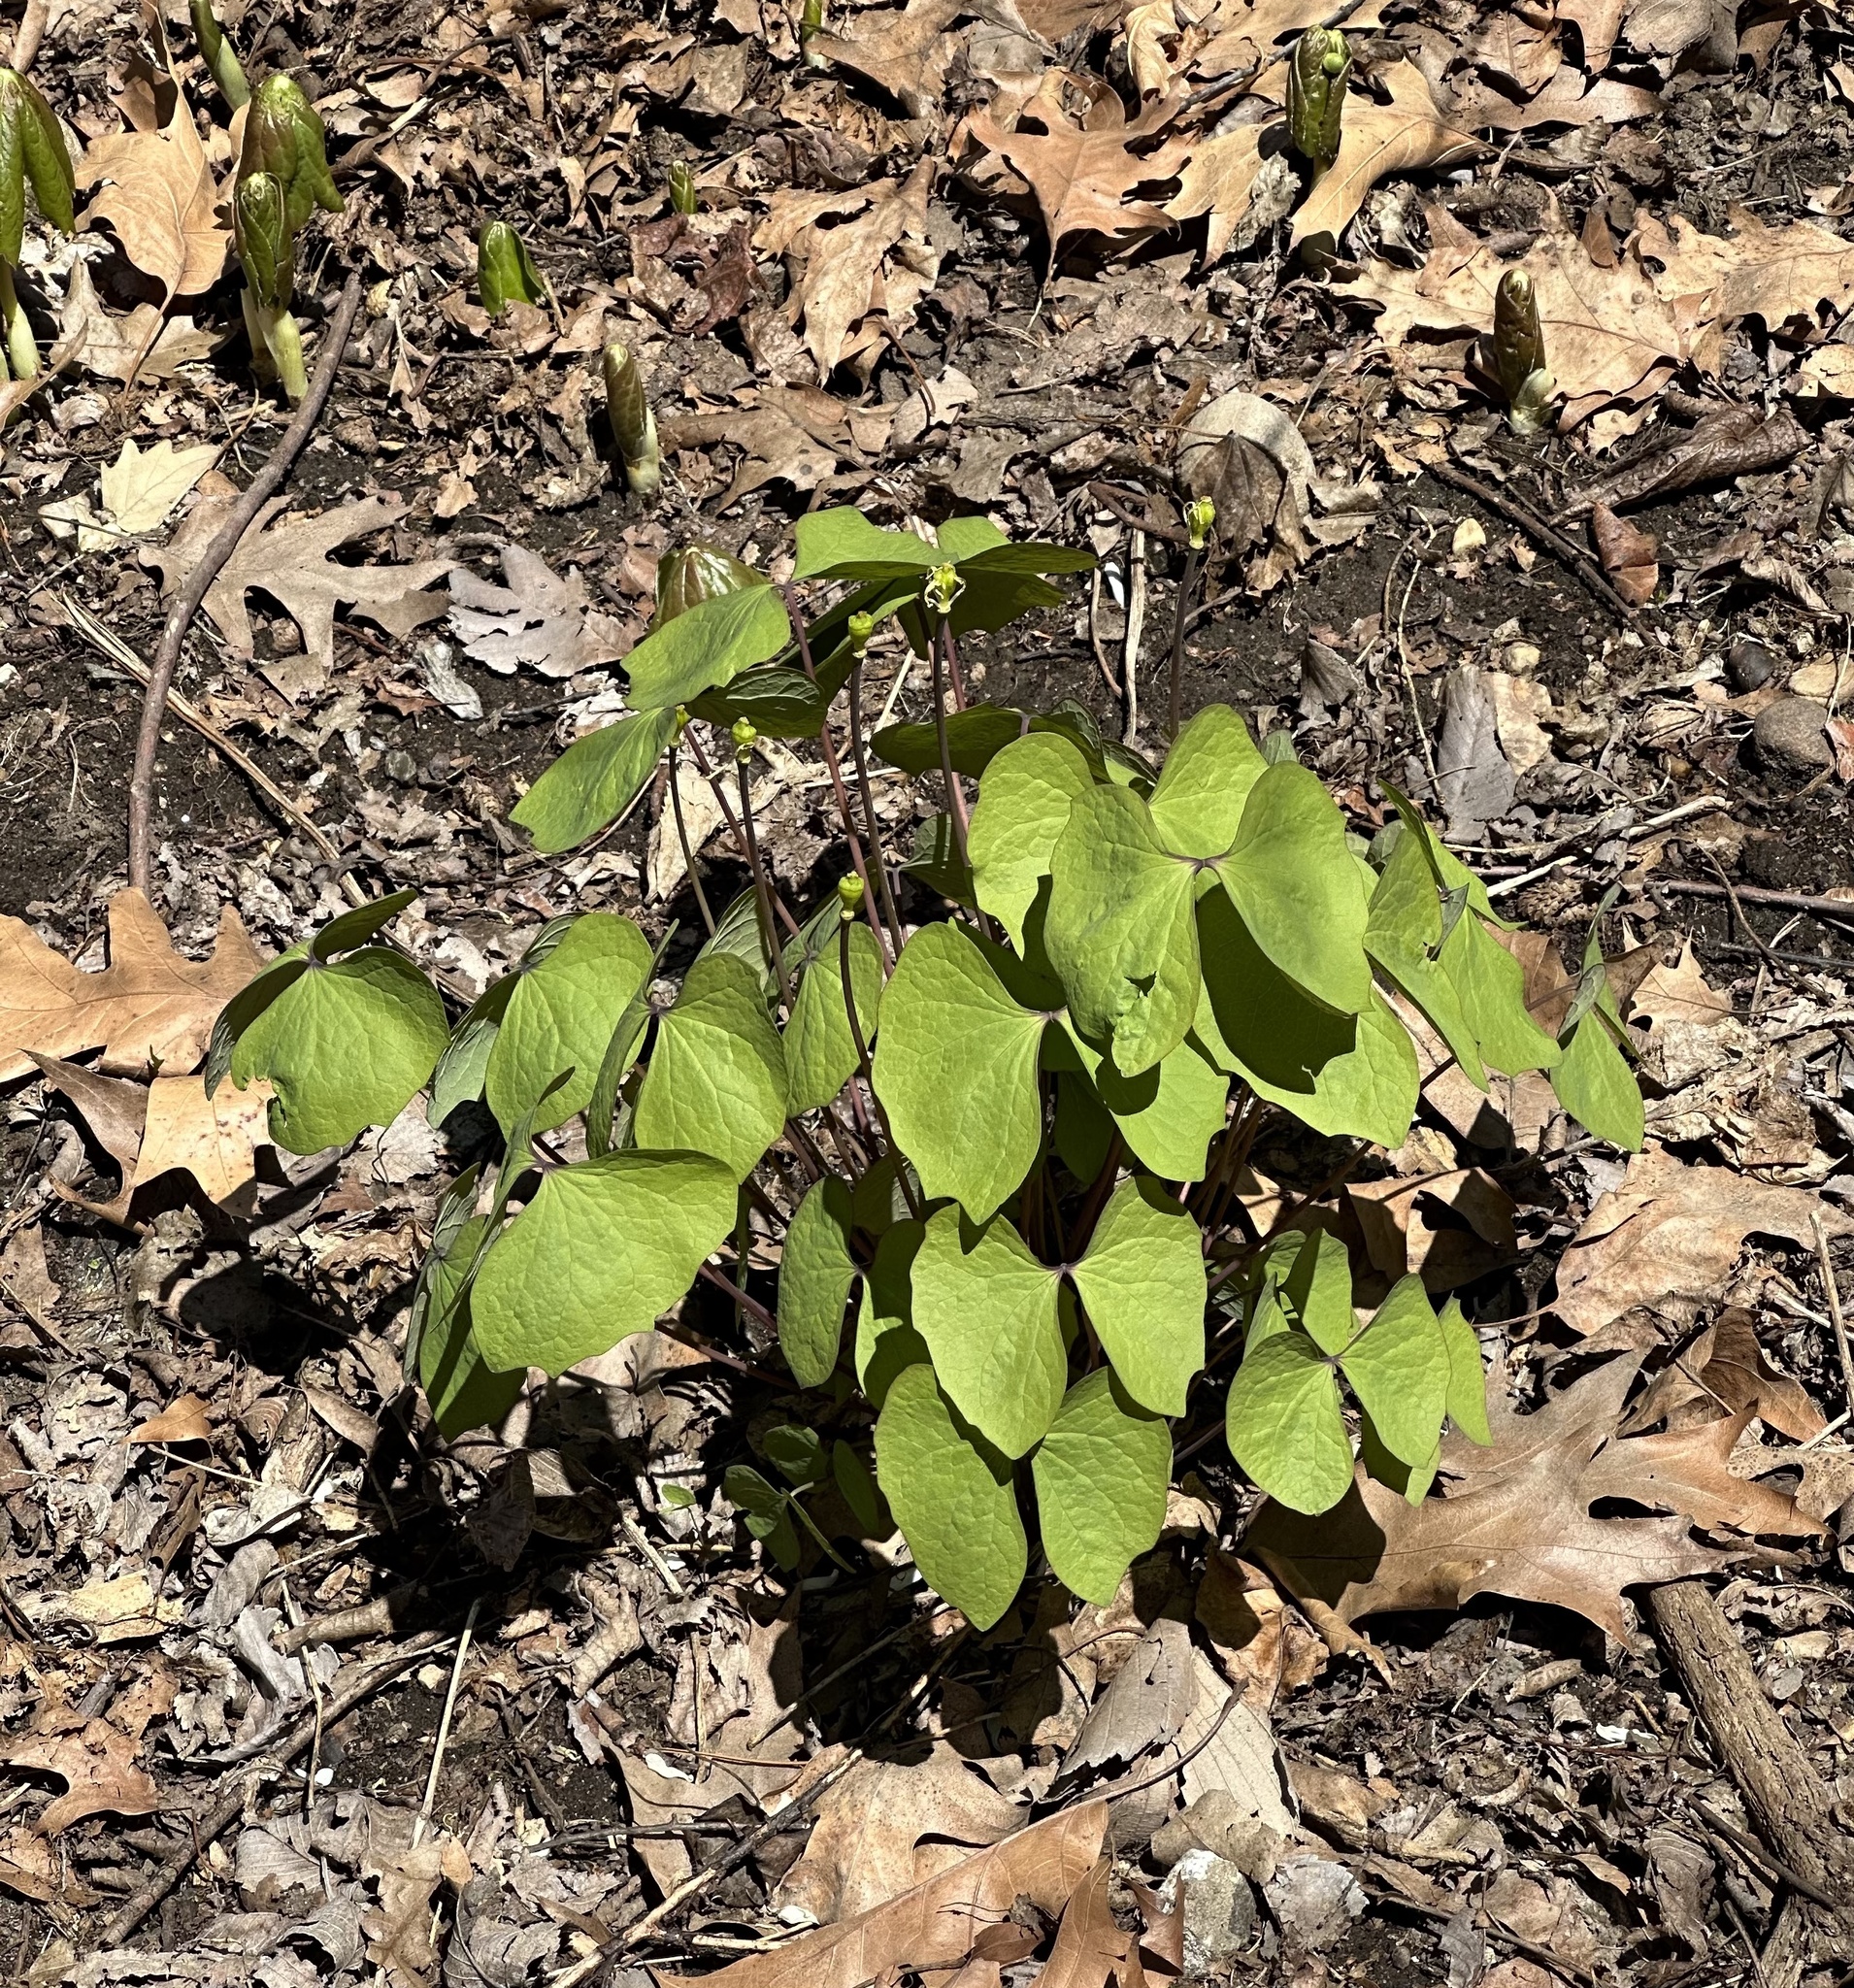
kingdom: Plantae
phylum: Tracheophyta
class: Magnoliopsida
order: Ranunculales
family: Berberidaceae
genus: Jeffersonia
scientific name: Jeffersonia diphylla
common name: Rheumatism-root
